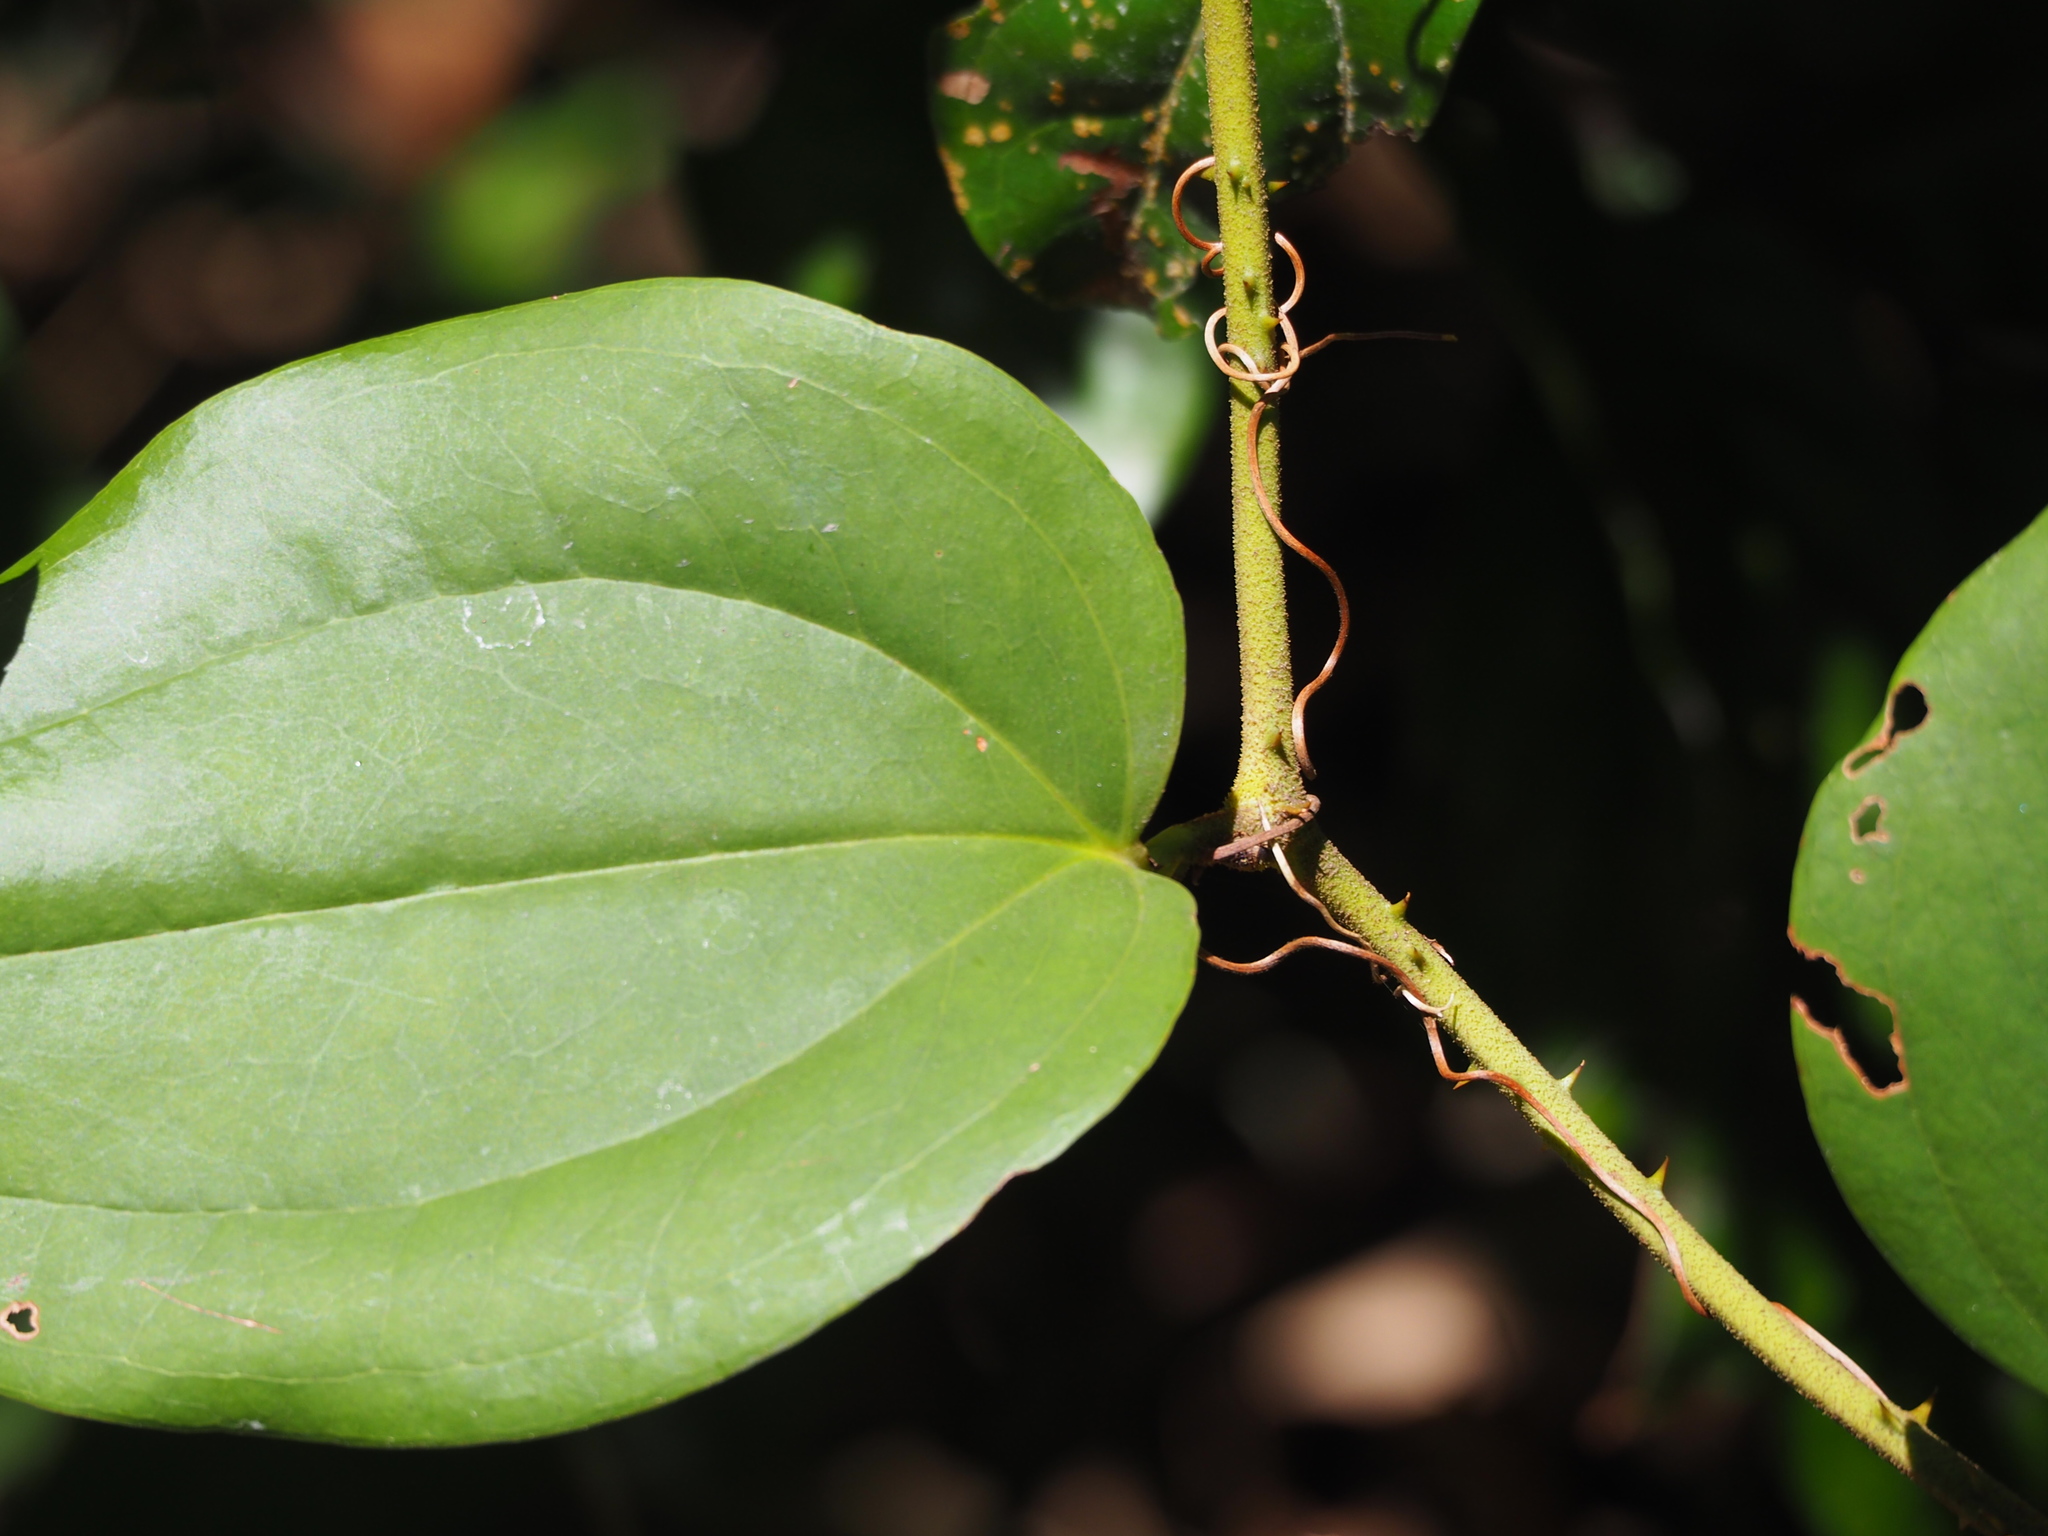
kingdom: Plantae
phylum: Tracheophyta
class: Liliopsida
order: Liliales
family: Smilacaceae
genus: Smilax
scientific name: Smilax aspericaulis
